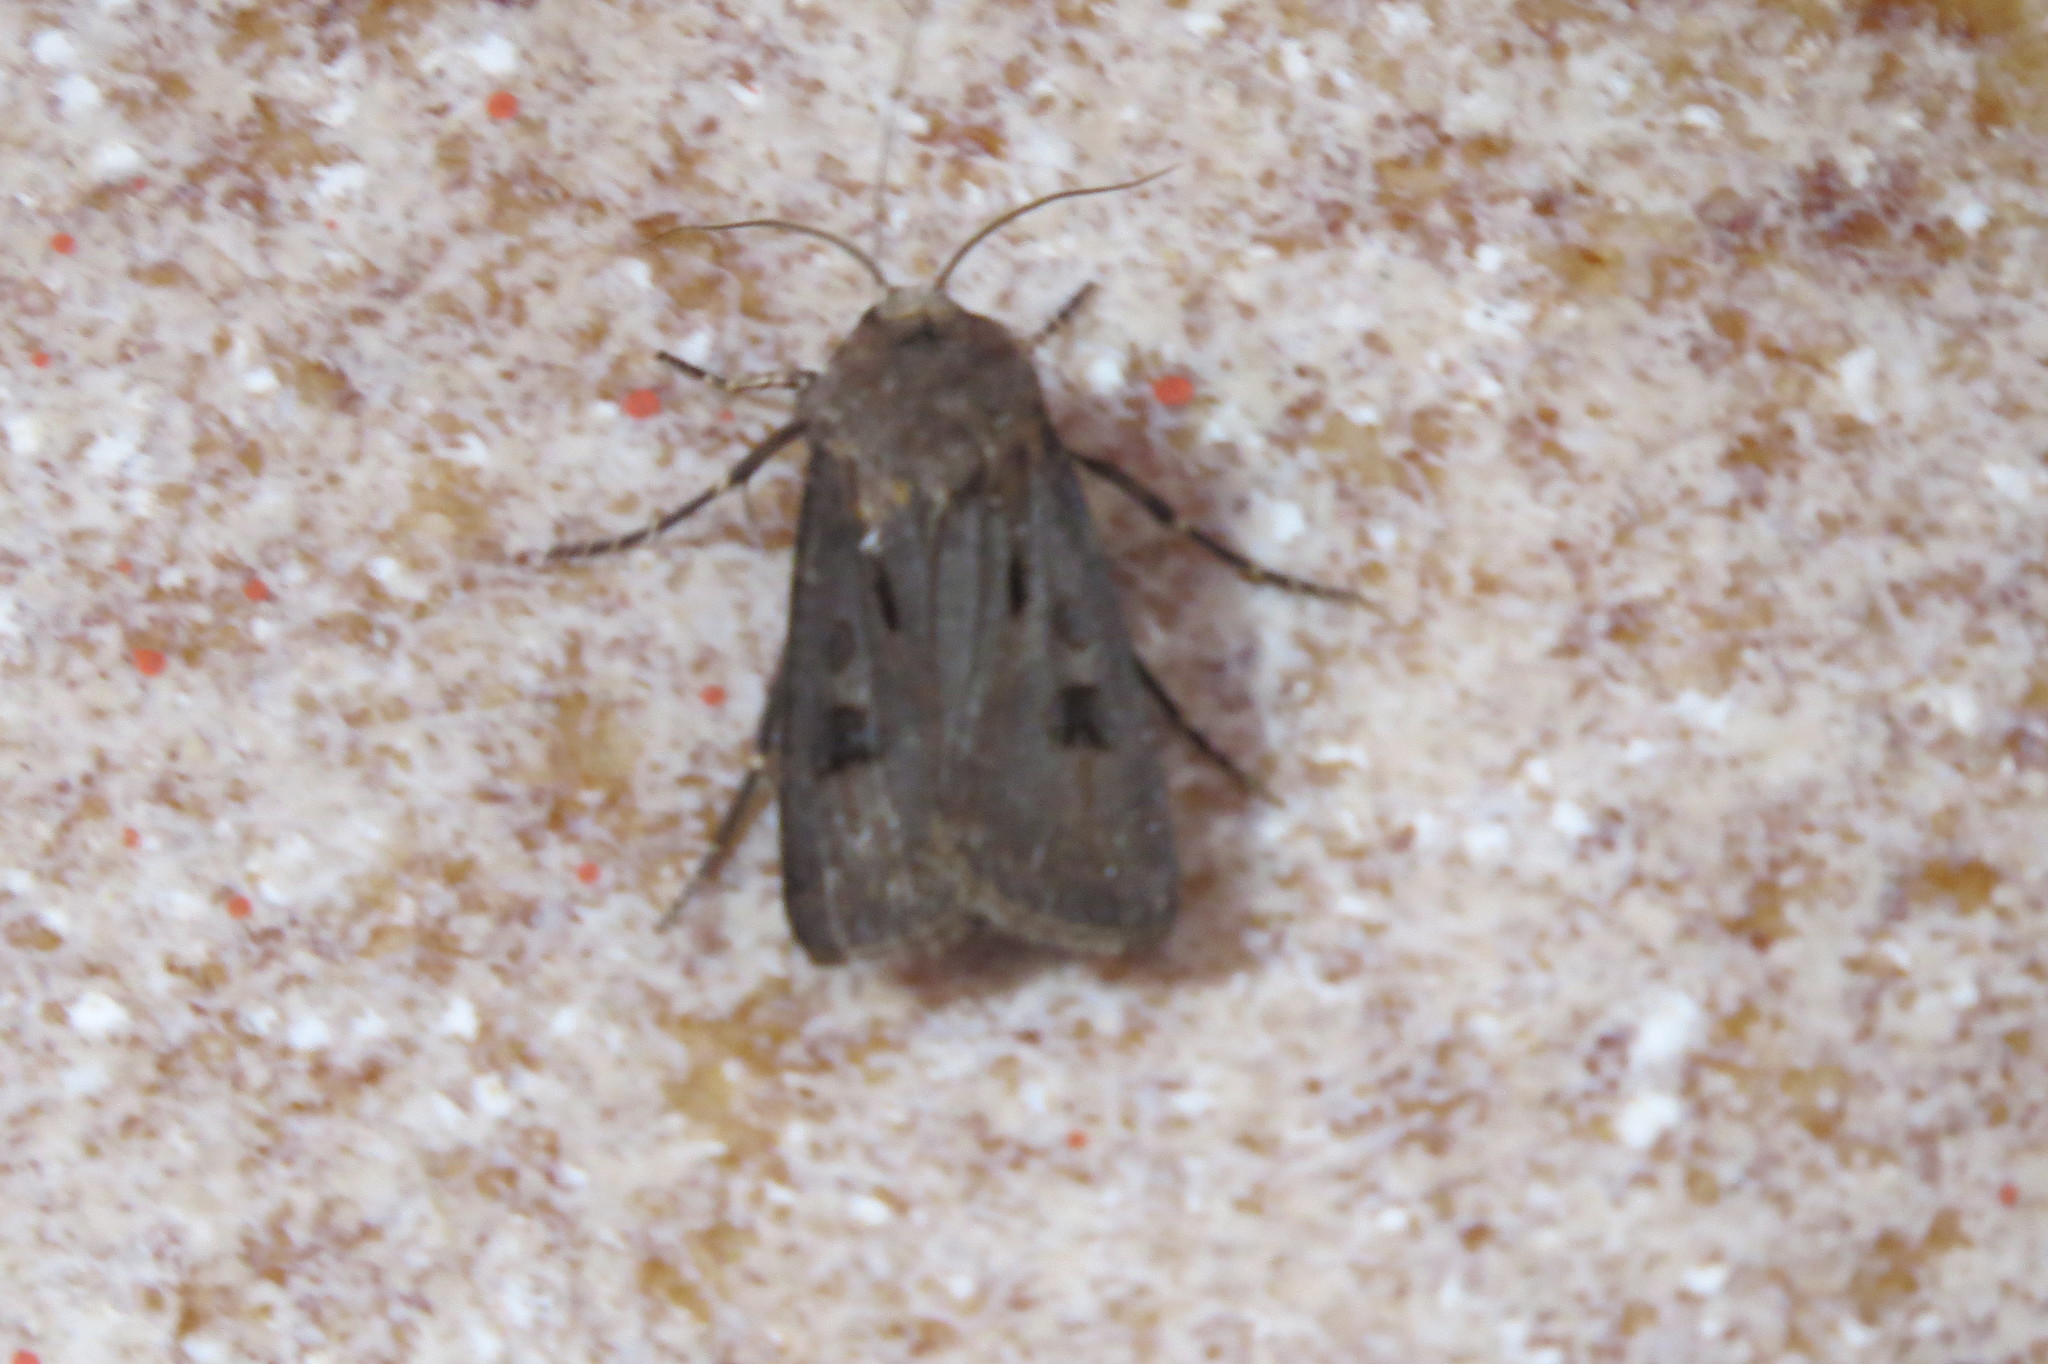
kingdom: Animalia
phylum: Arthropoda
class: Insecta
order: Lepidoptera
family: Noctuidae
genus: Agrotis
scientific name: Agrotis exclamationis
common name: Heart and dart
